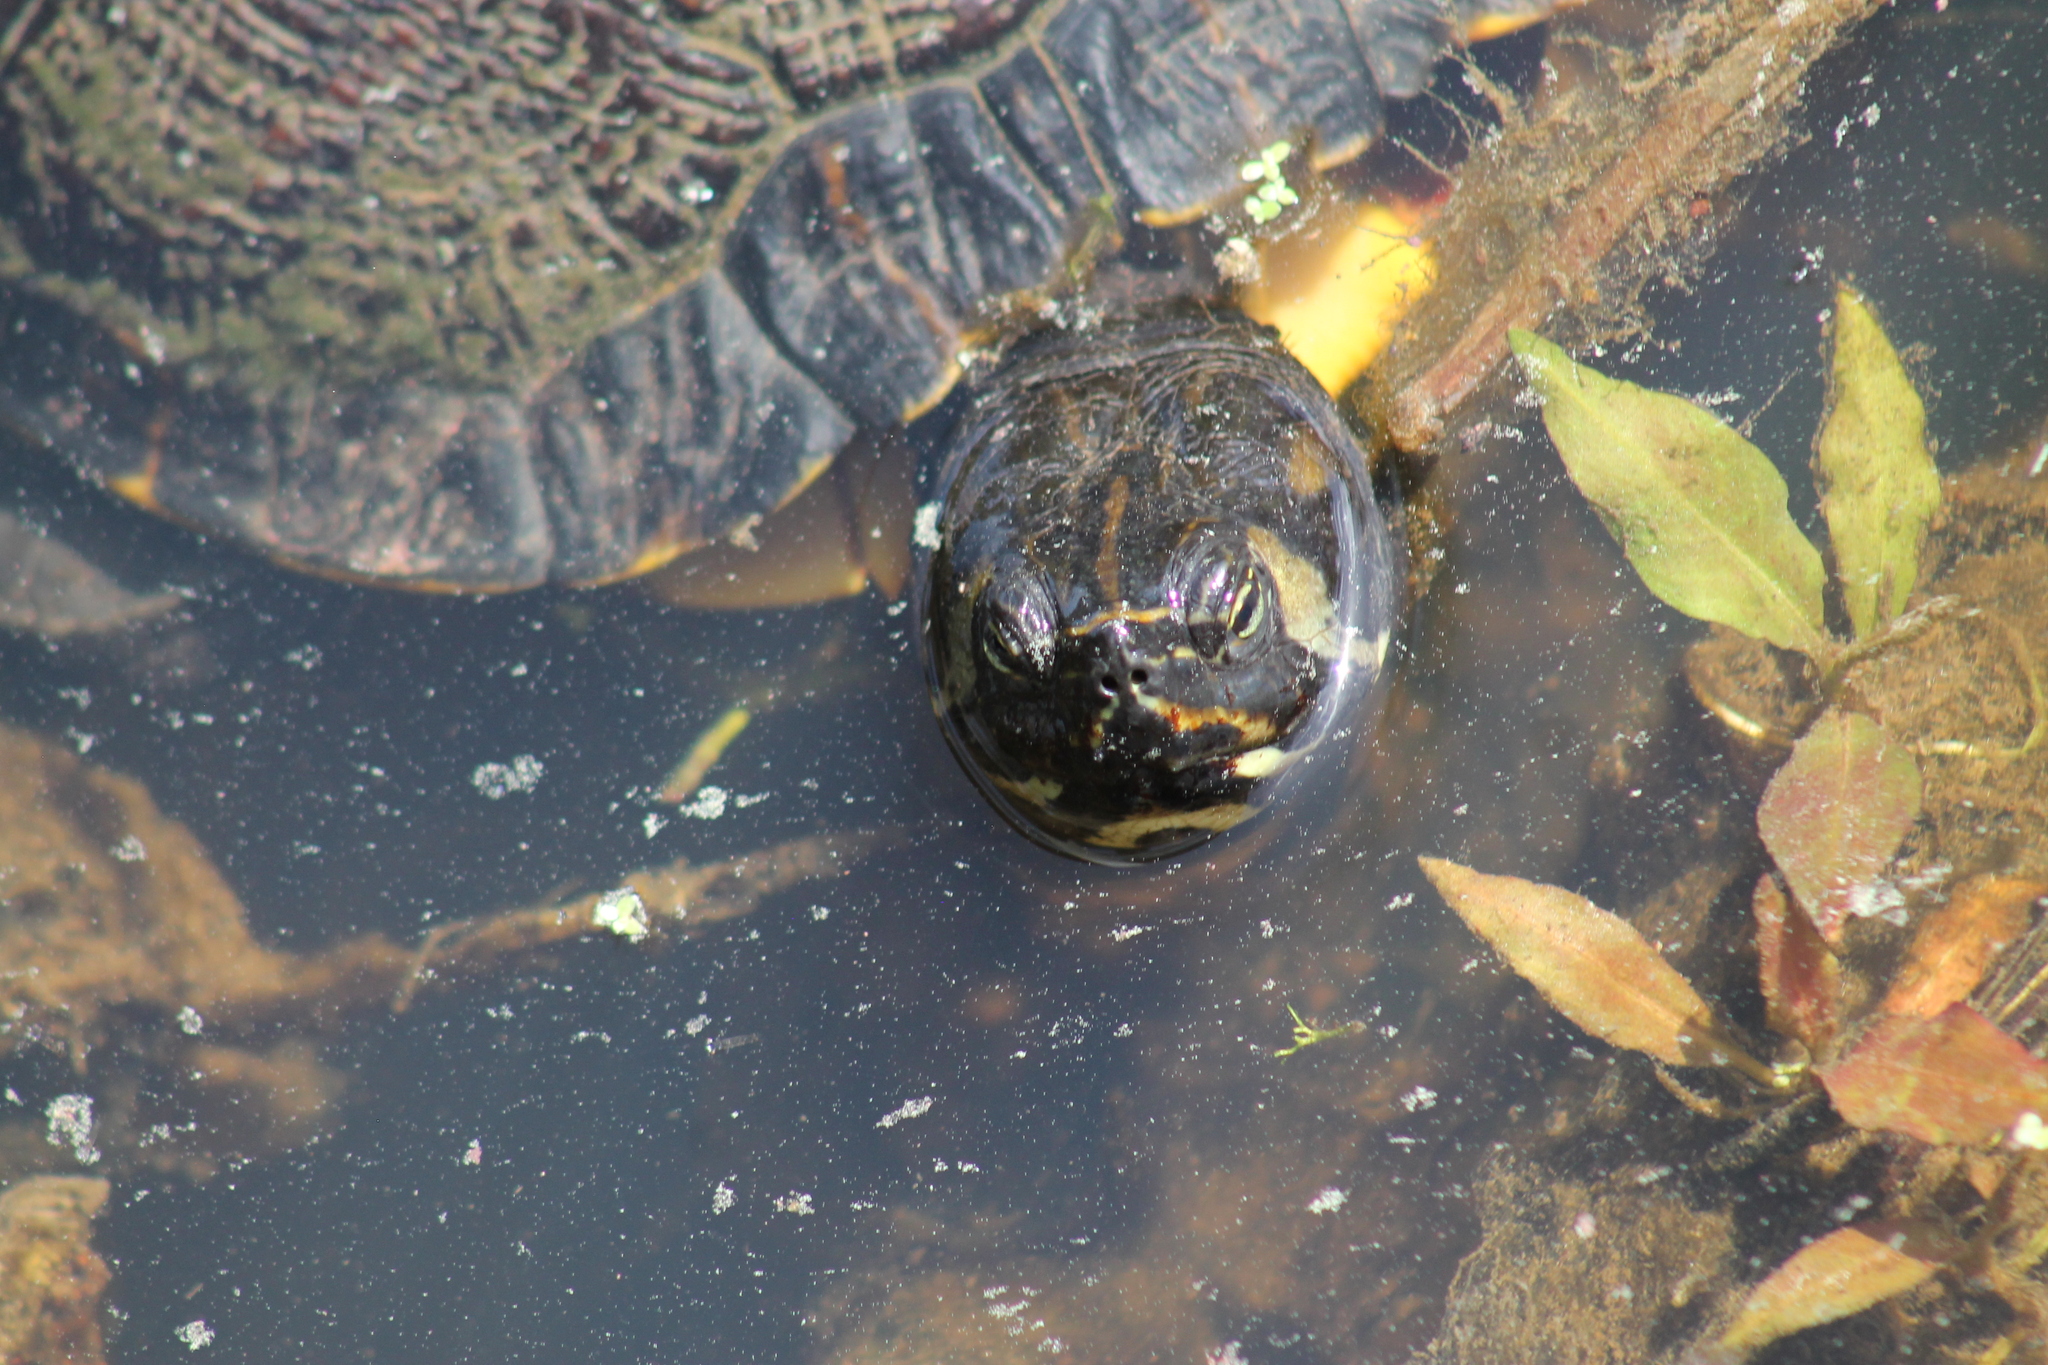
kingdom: Animalia
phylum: Chordata
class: Testudines
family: Emydidae
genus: Trachemys
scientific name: Trachemys scripta
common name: Slider
